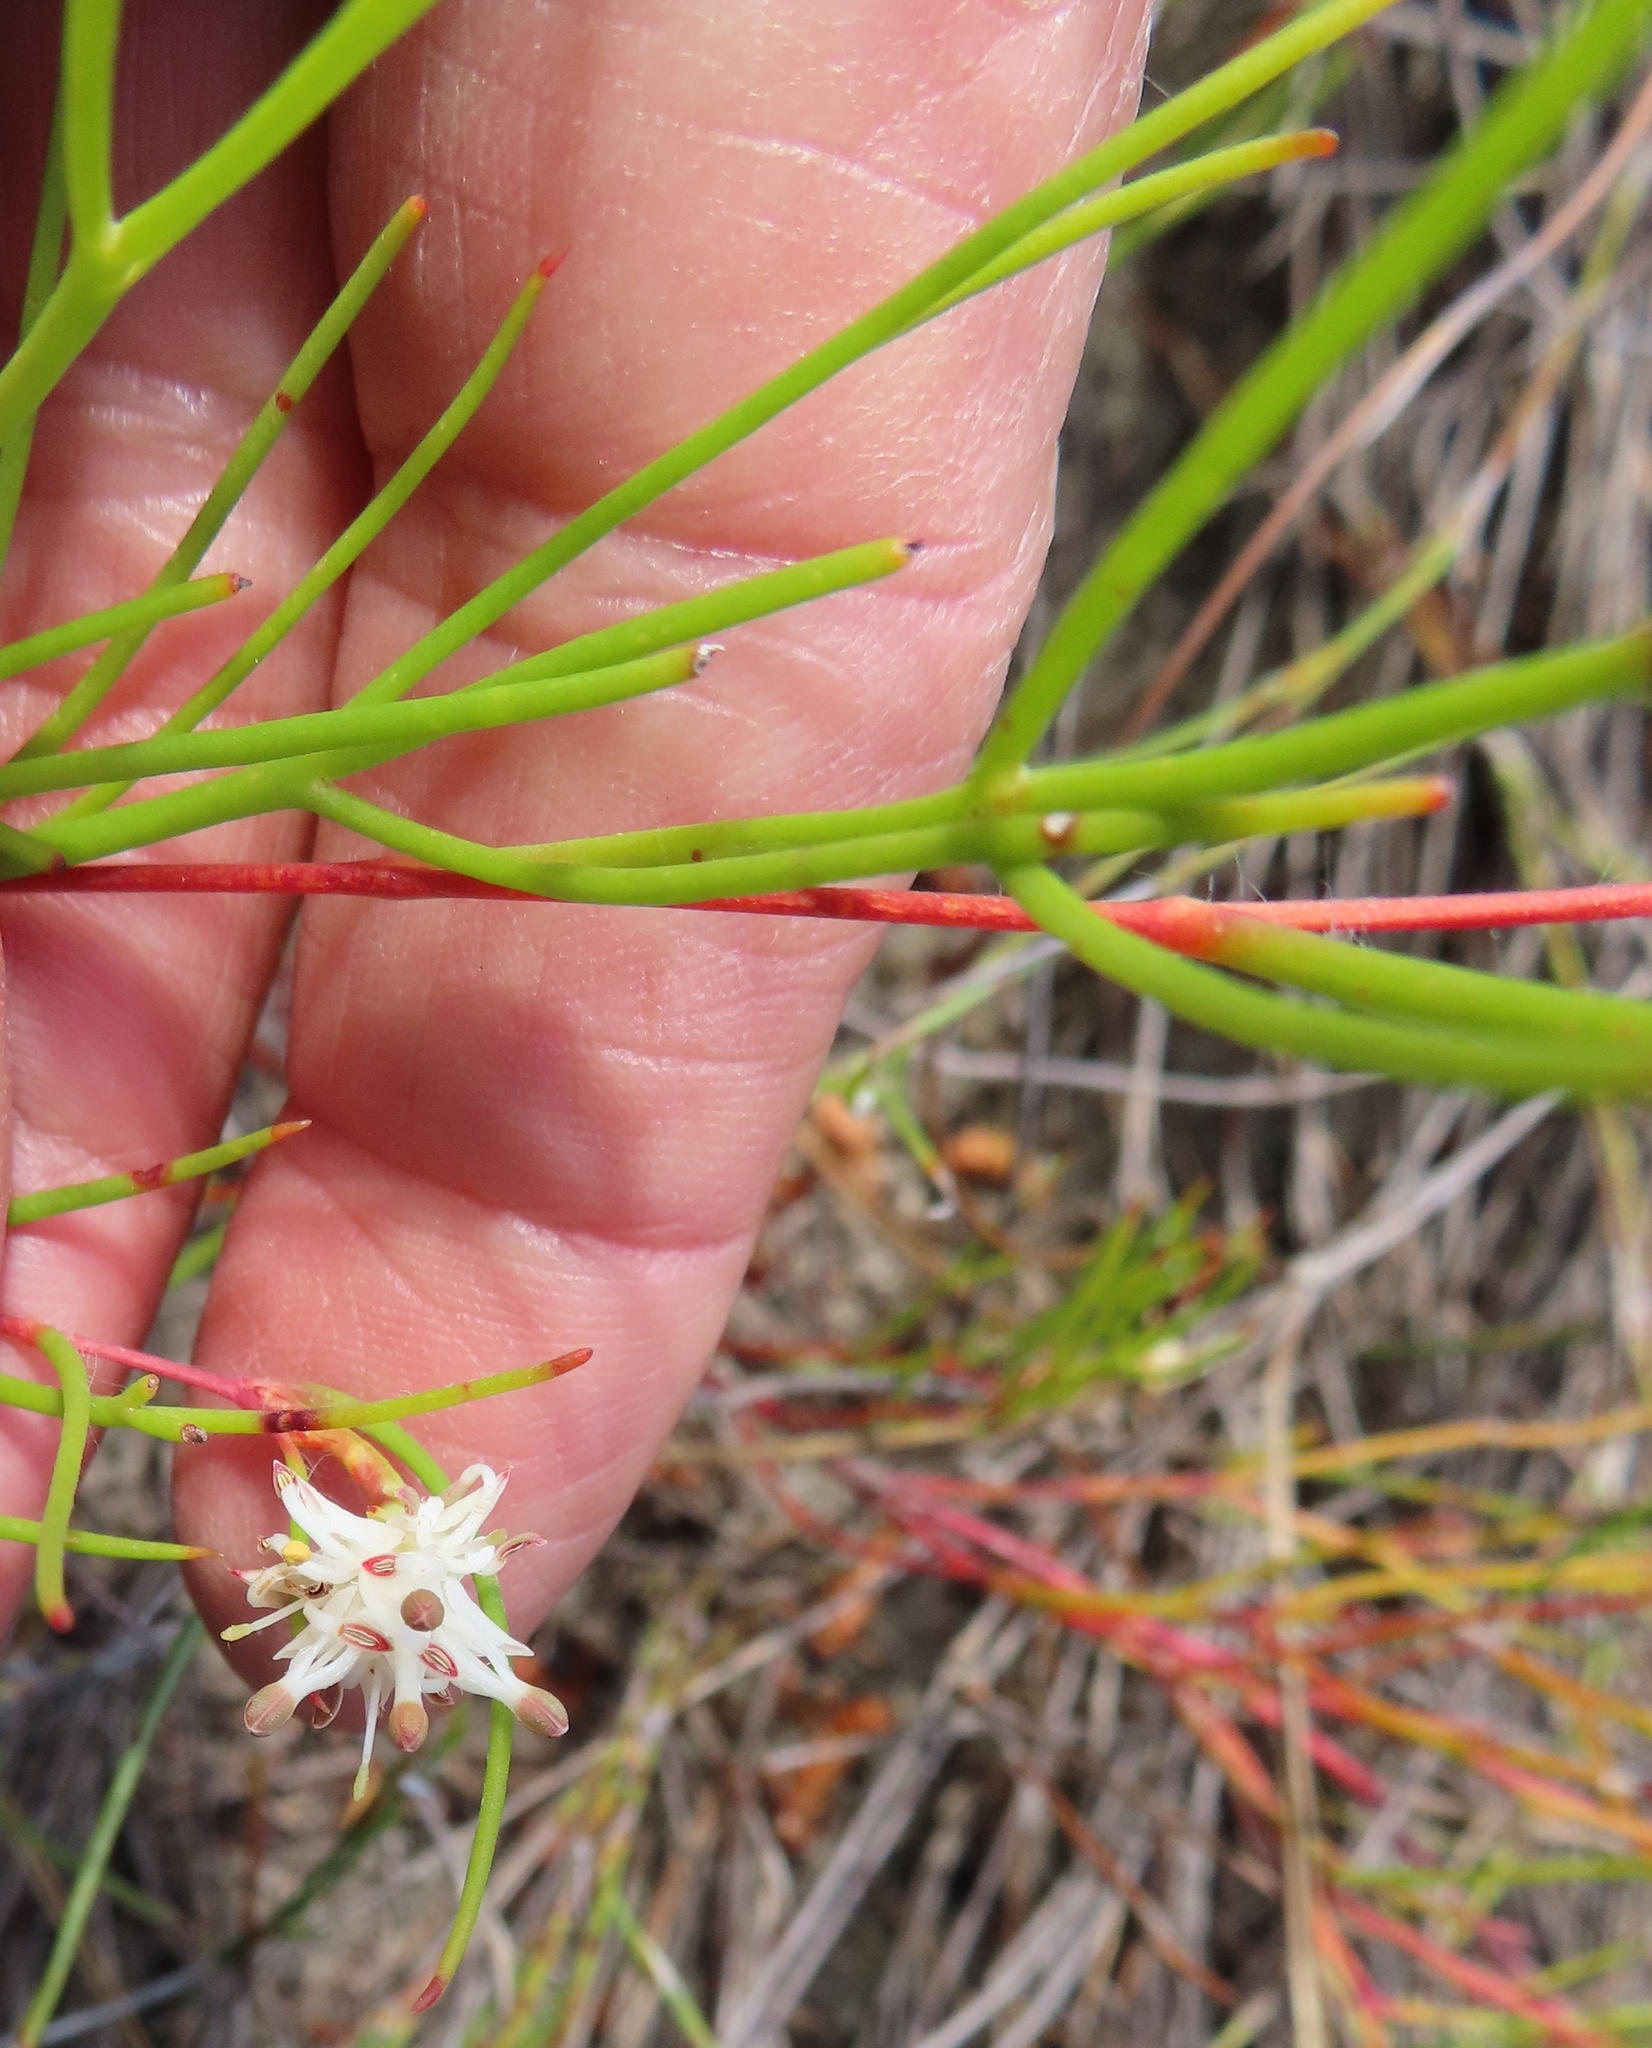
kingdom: Plantae
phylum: Tracheophyta
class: Magnoliopsida
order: Proteales
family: Proteaceae
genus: Serruria
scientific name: Serruria flagellifolia
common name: Houwhoek spiderhead
